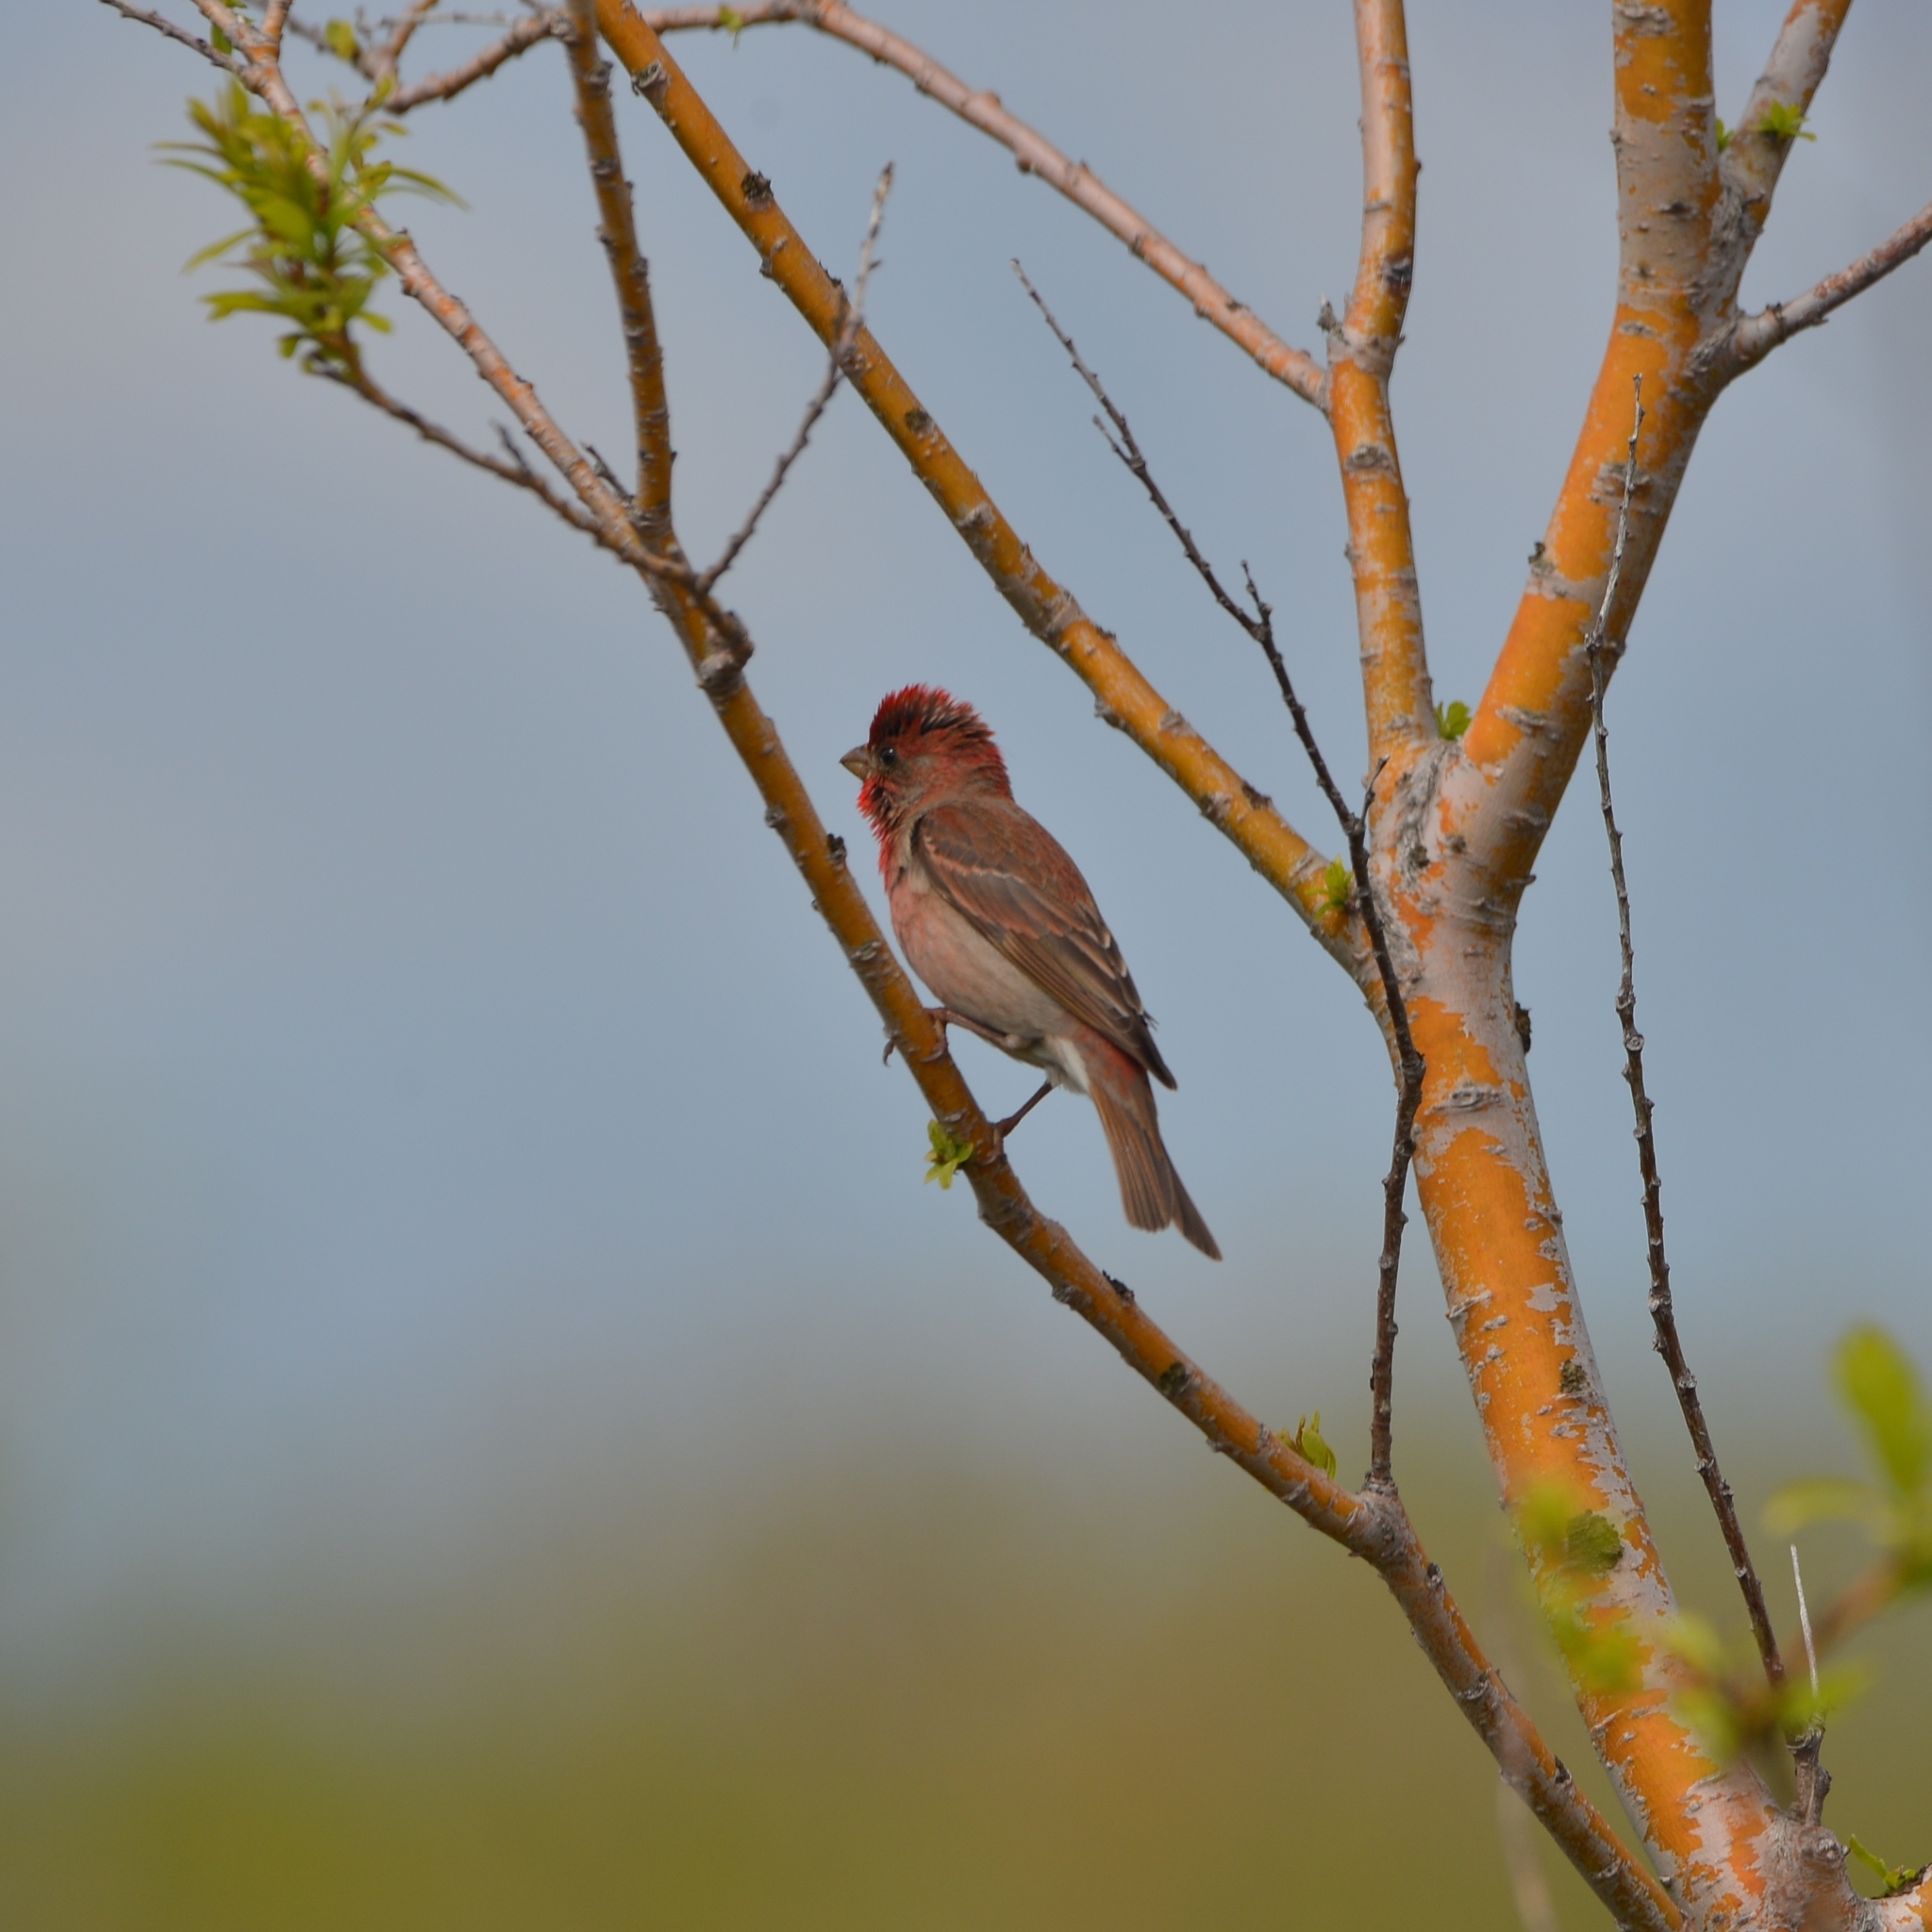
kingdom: Animalia
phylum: Chordata
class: Aves
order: Passeriformes
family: Fringillidae
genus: Carpodacus
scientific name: Carpodacus erythrinus
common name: Common rosefinch
